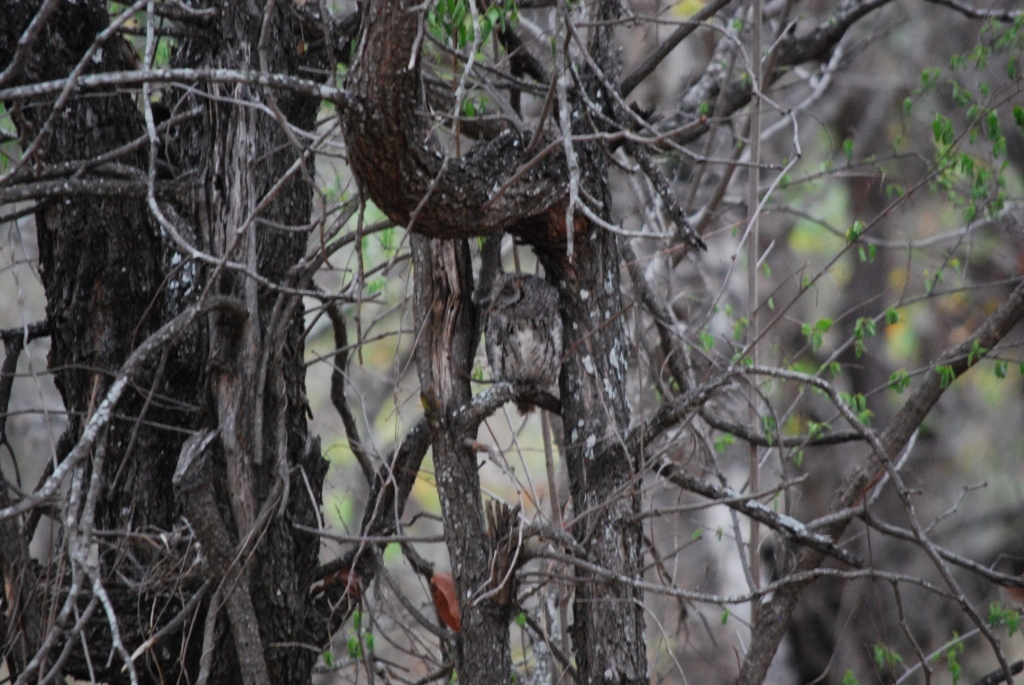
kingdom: Animalia
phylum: Chordata
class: Aves
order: Strigiformes
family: Strigidae
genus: Otus
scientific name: Otus senegalensis
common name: African scops owl
